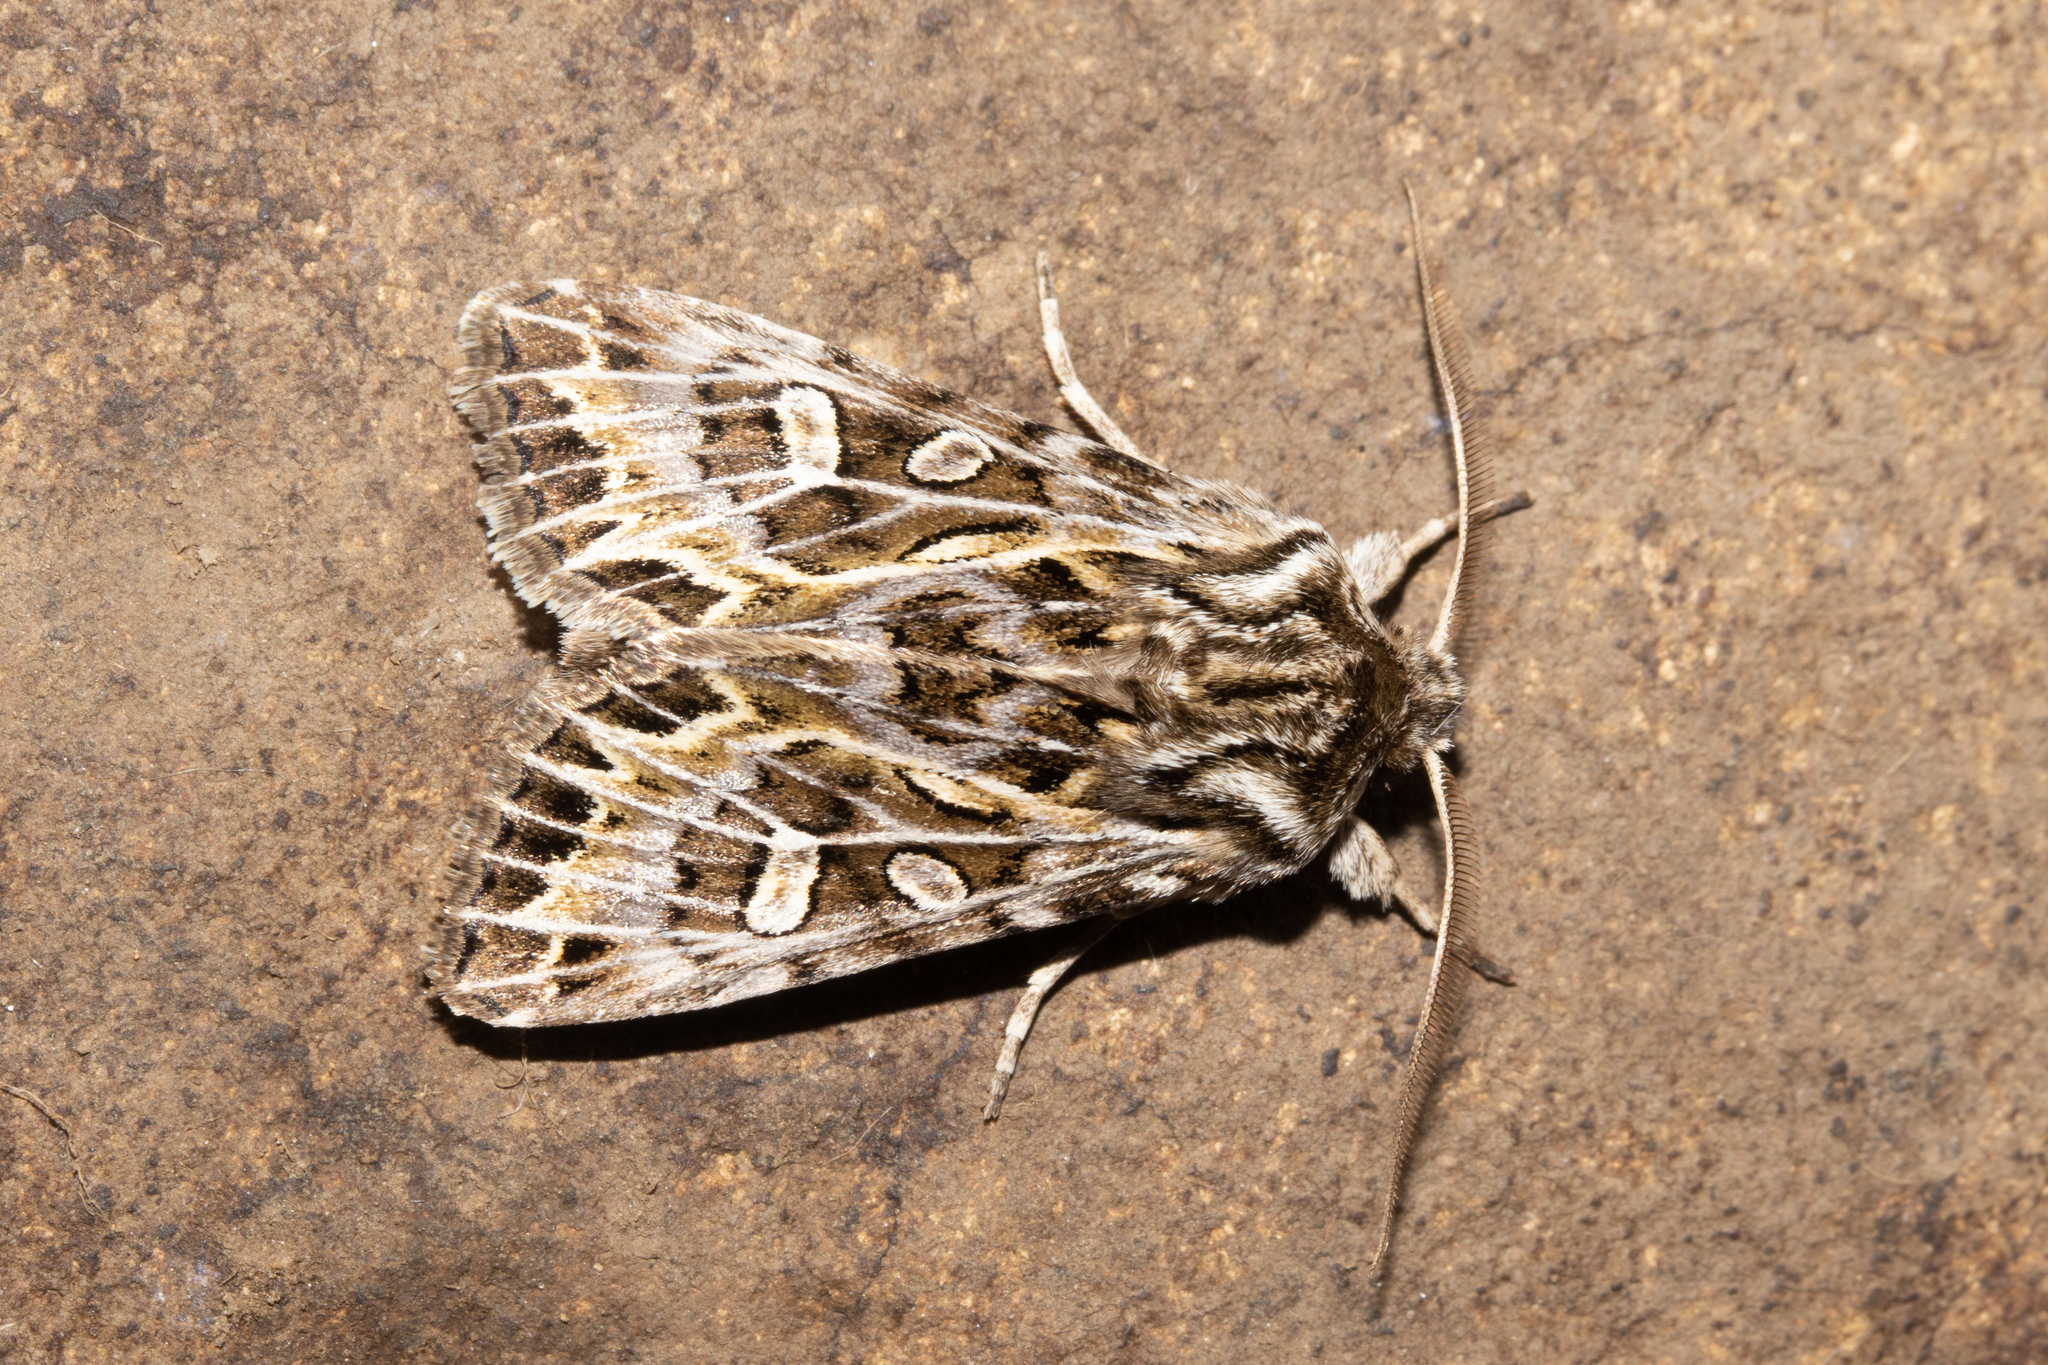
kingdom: Animalia
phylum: Arthropoda
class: Insecta
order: Lepidoptera
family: Noctuidae
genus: Ichneutica
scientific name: Ichneutica
